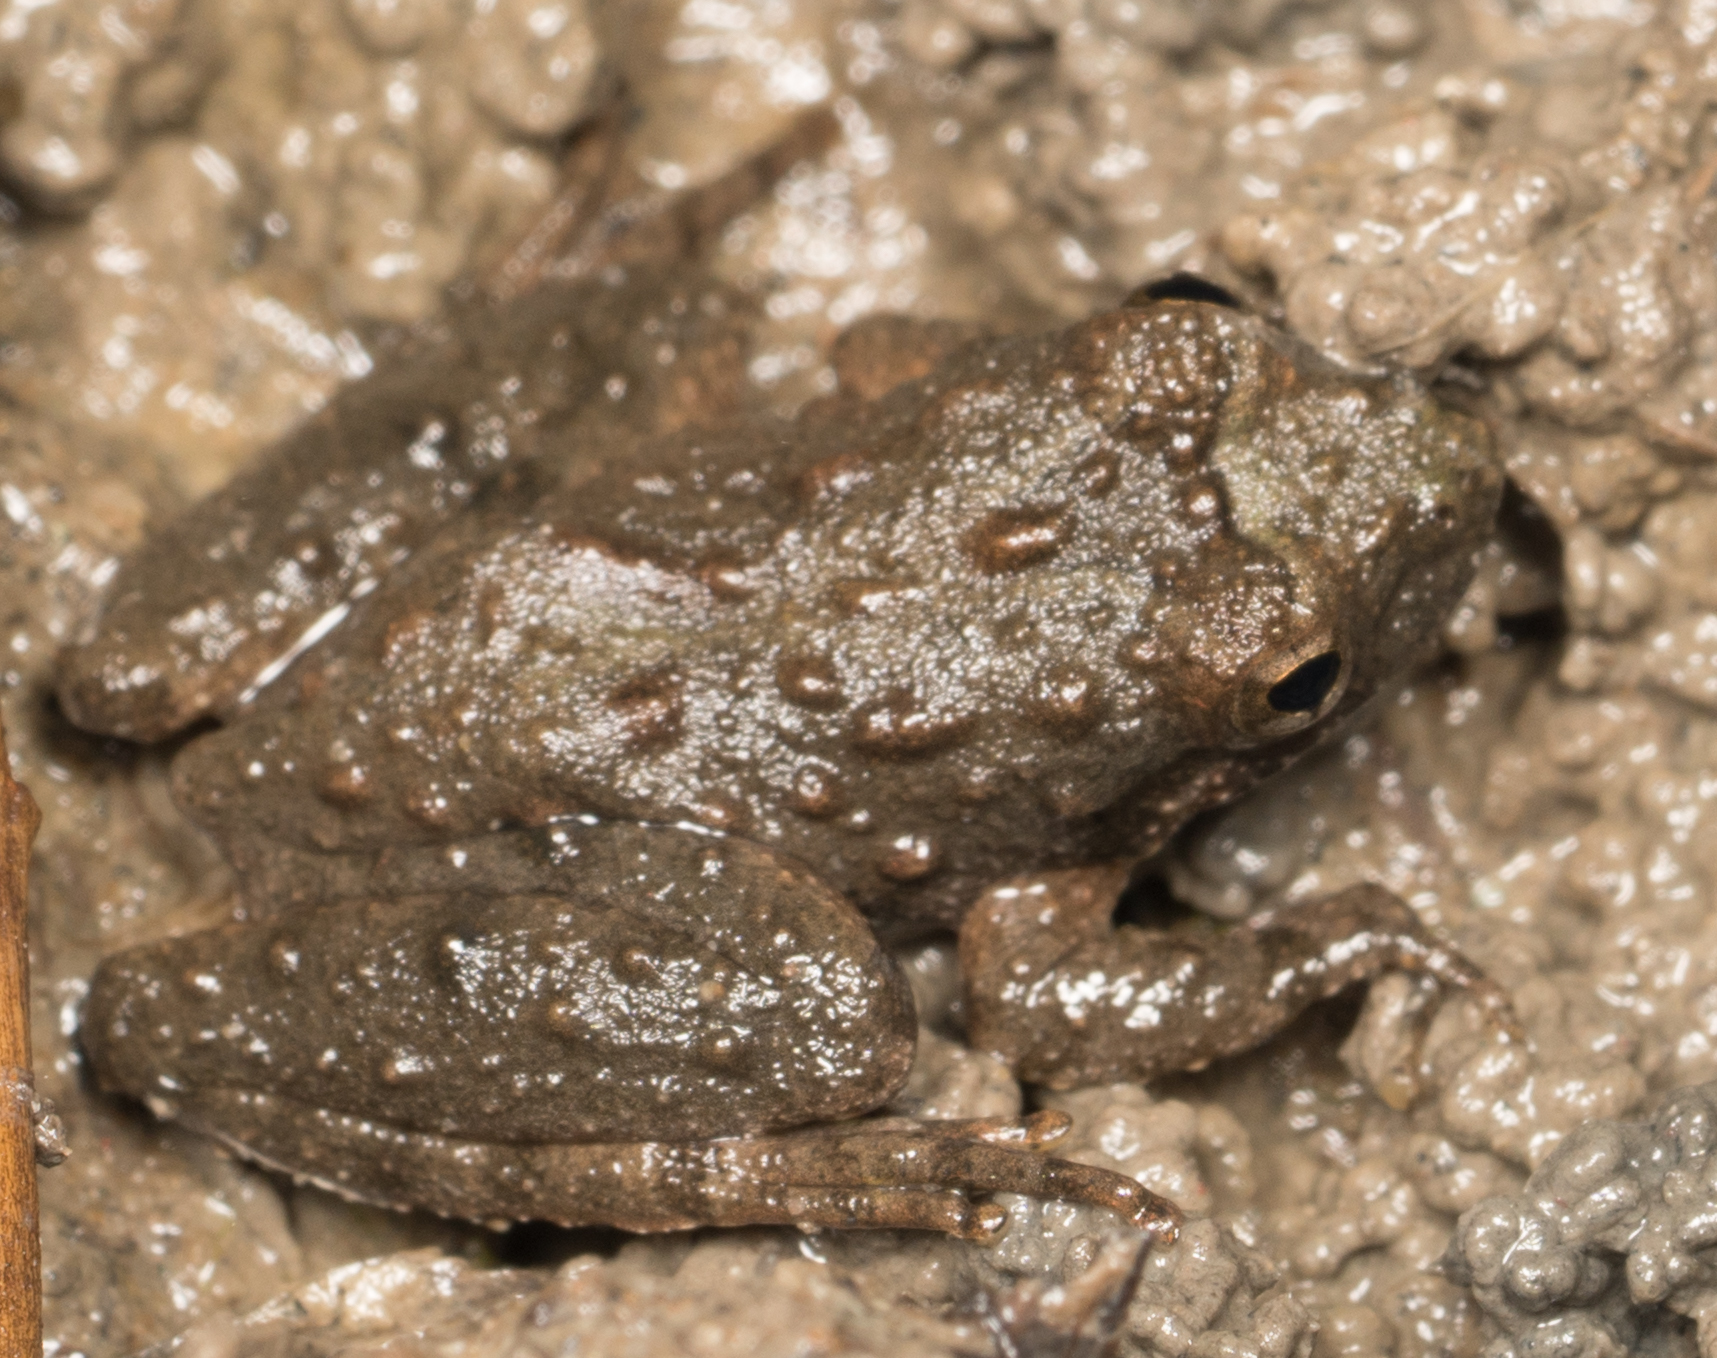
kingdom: Animalia
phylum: Chordata
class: Amphibia
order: Anura
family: Hylidae
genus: Acris
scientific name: Acris blanchardi
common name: Blanchard's cricket frog
